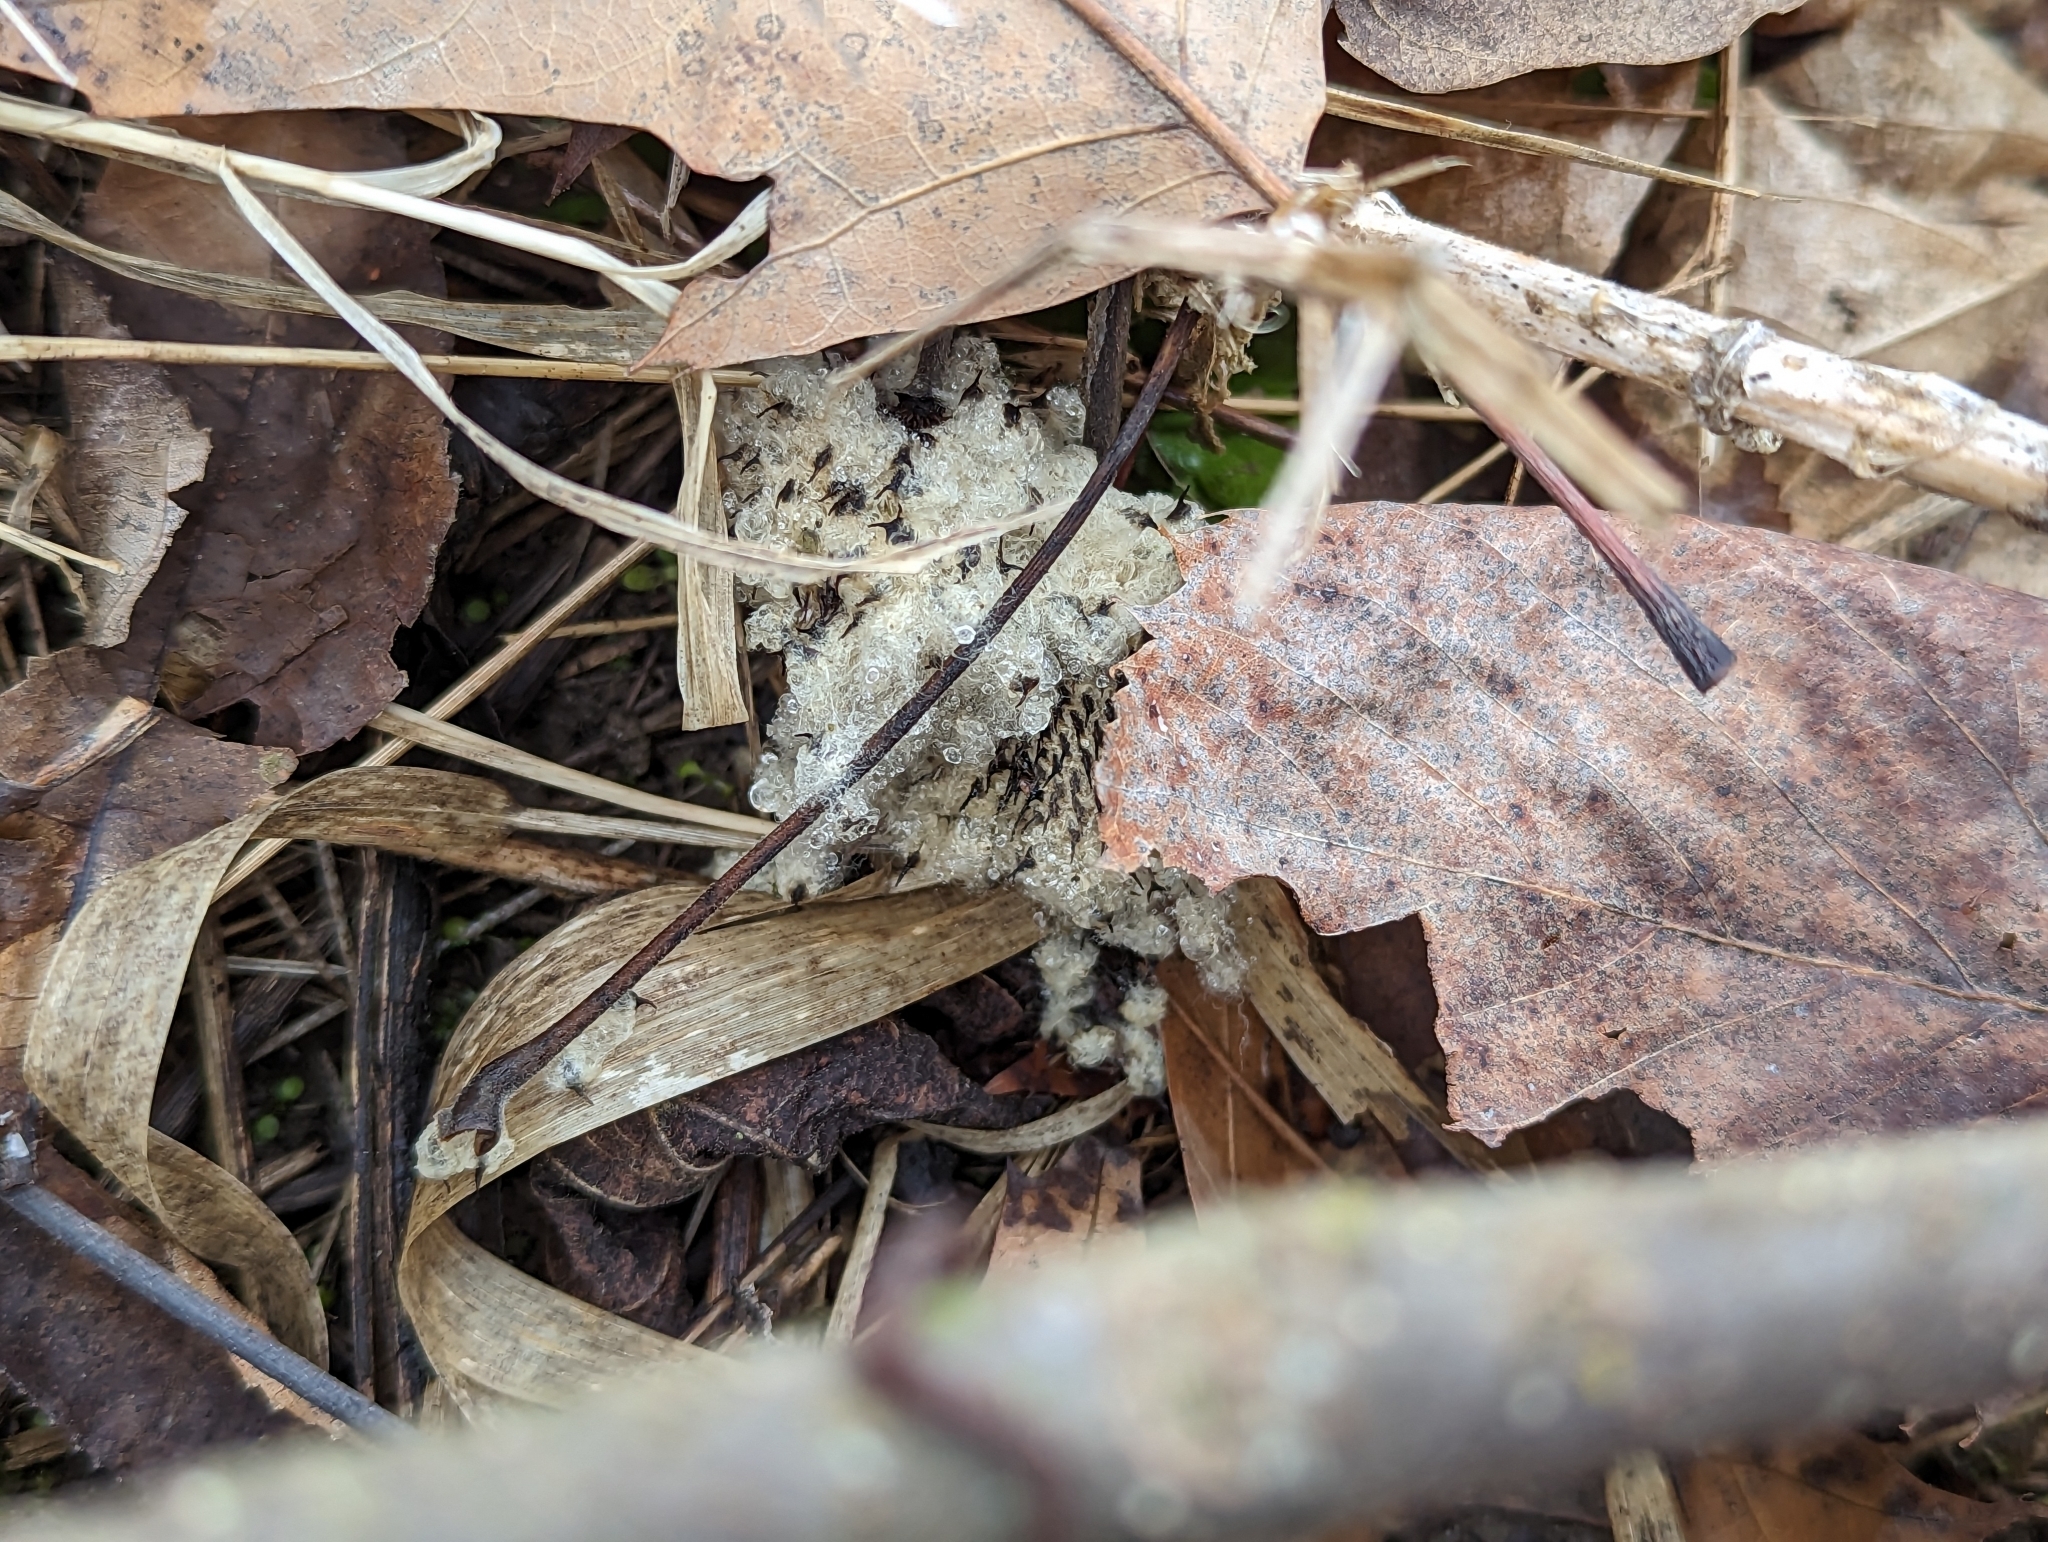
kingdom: Plantae
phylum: Tracheophyta
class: Magnoliopsida
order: Ranunculales
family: Ranunculaceae
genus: Anemone
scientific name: Anemone virginiana
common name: Tall anemone
